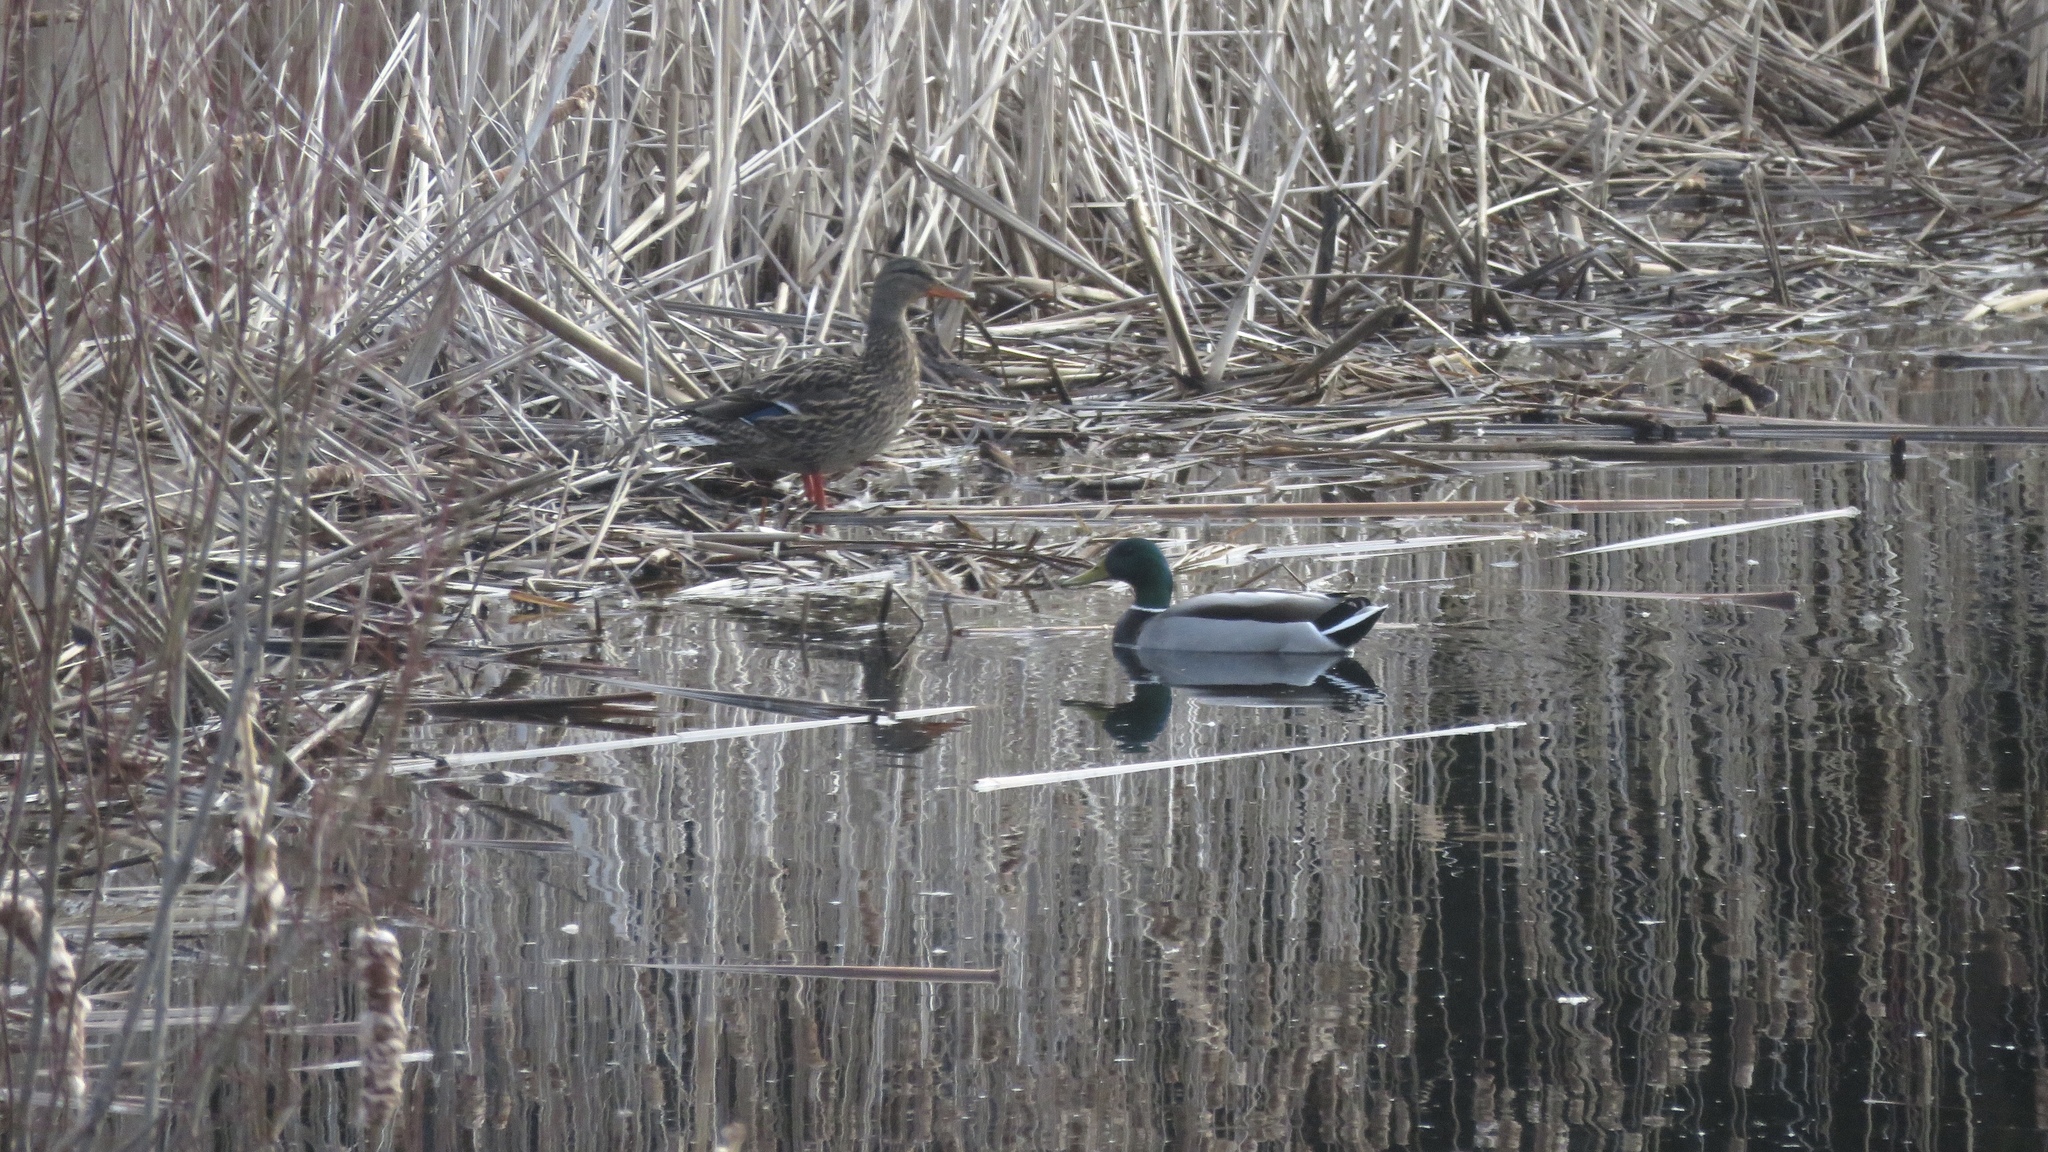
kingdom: Animalia
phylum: Chordata
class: Aves
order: Anseriformes
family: Anatidae
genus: Anas
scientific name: Anas platyrhynchos
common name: Mallard
